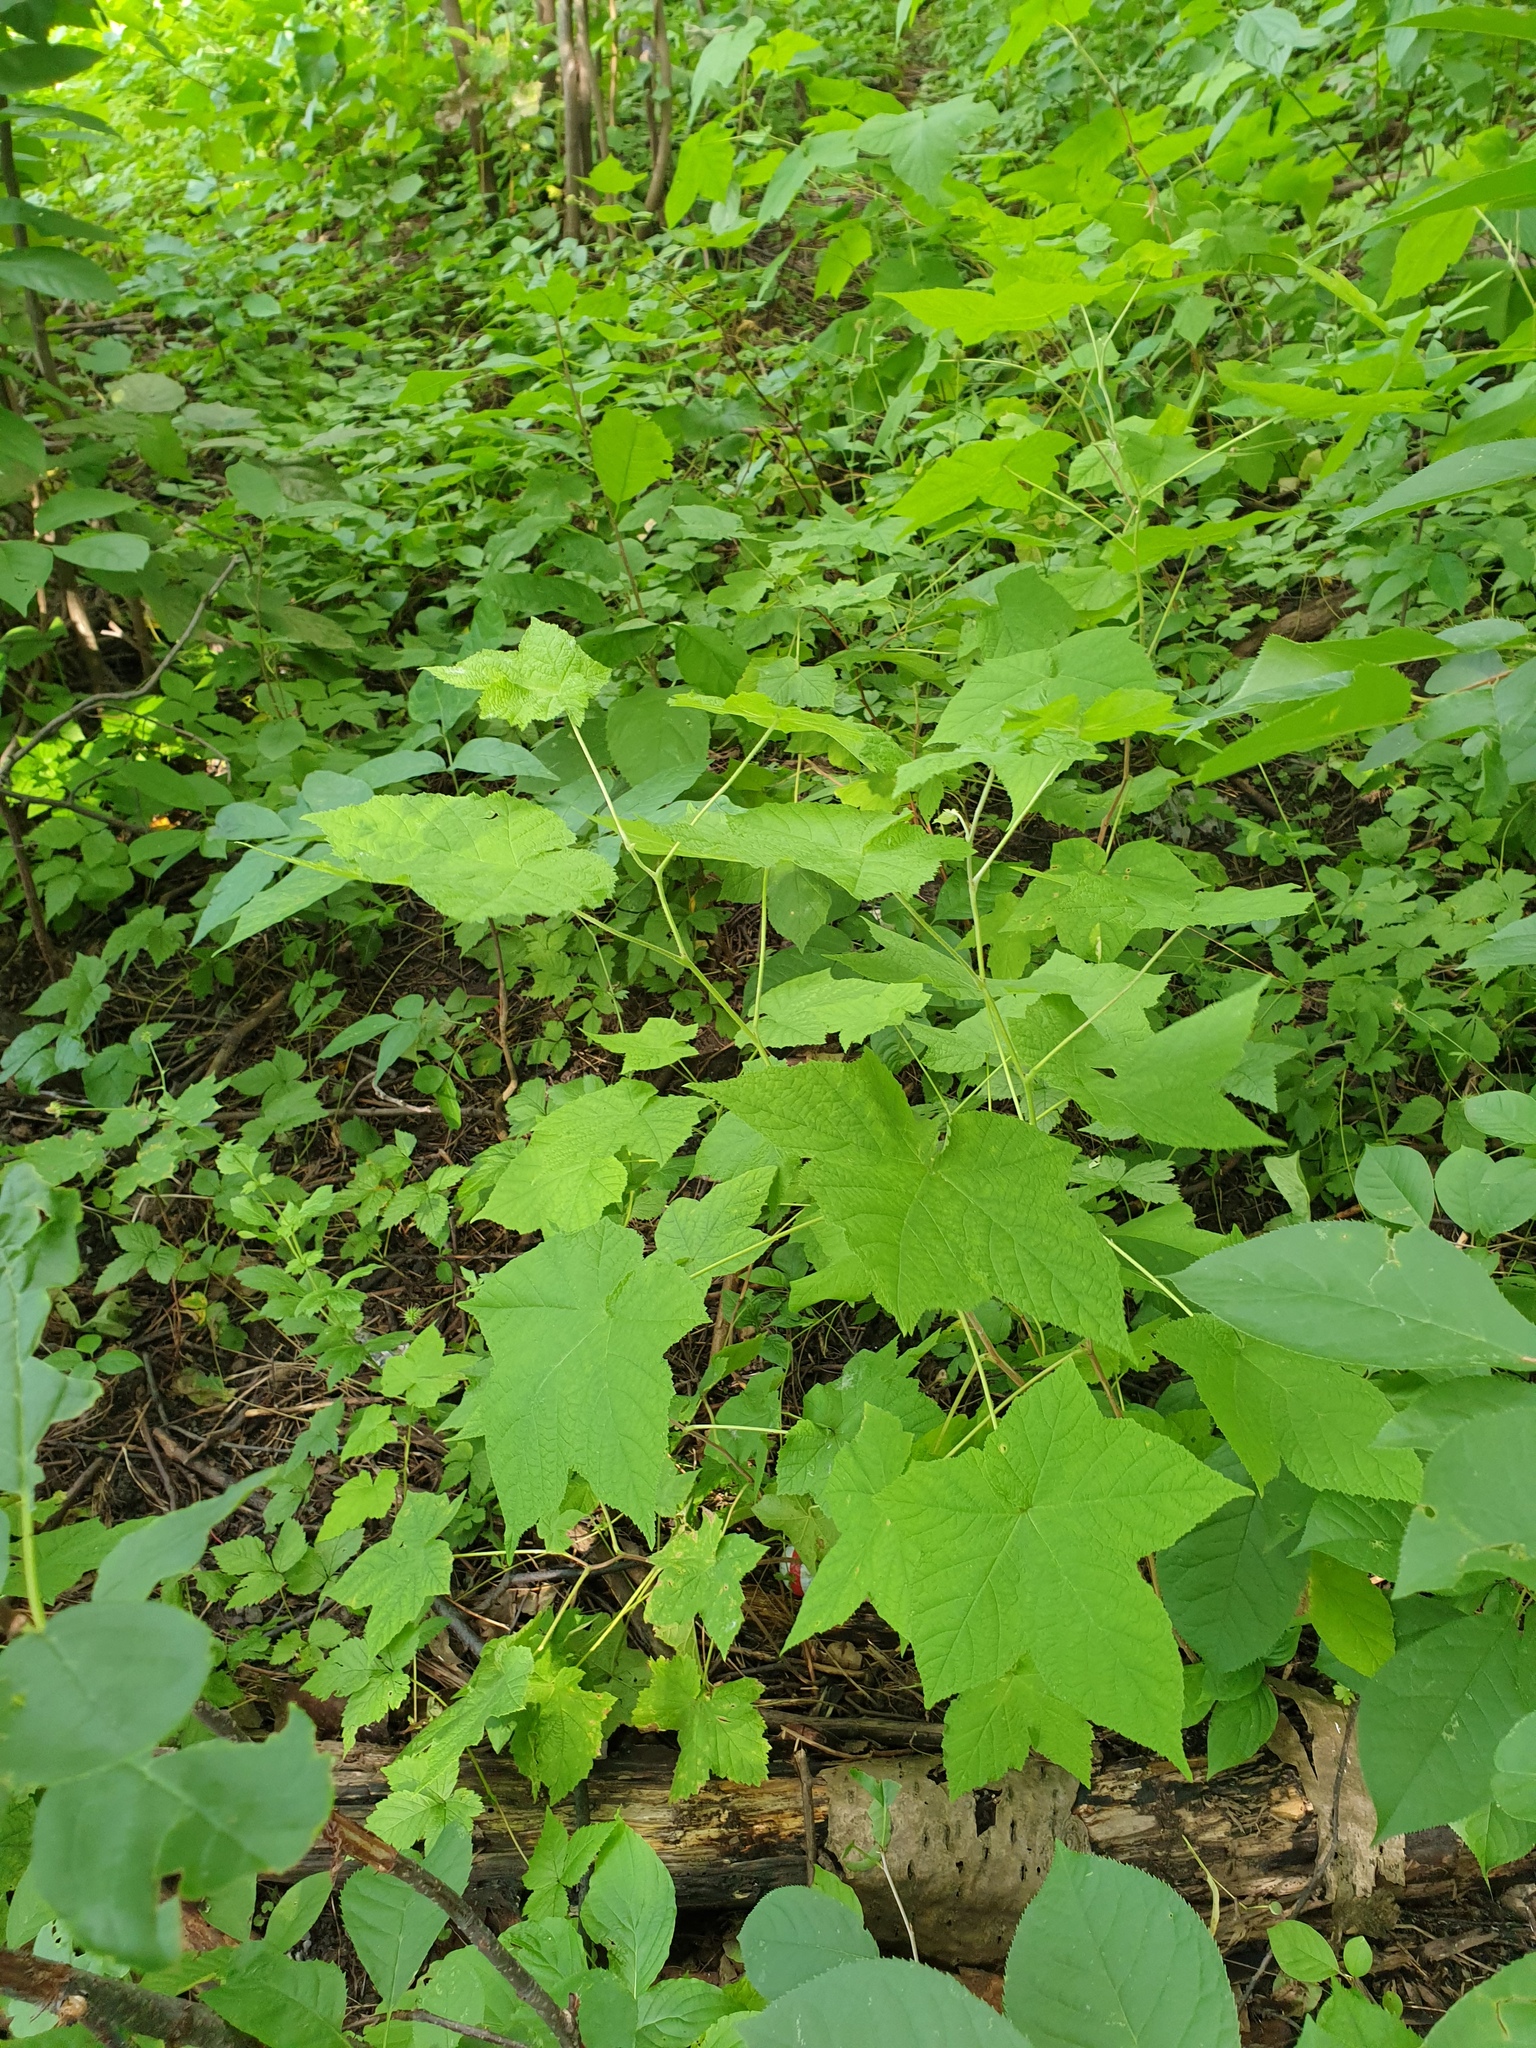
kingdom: Plantae
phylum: Tracheophyta
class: Magnoliopsida
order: Rosales
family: Rosaceae
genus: Rubus
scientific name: Rubus odoratus
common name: Purple-flowered raspberry
